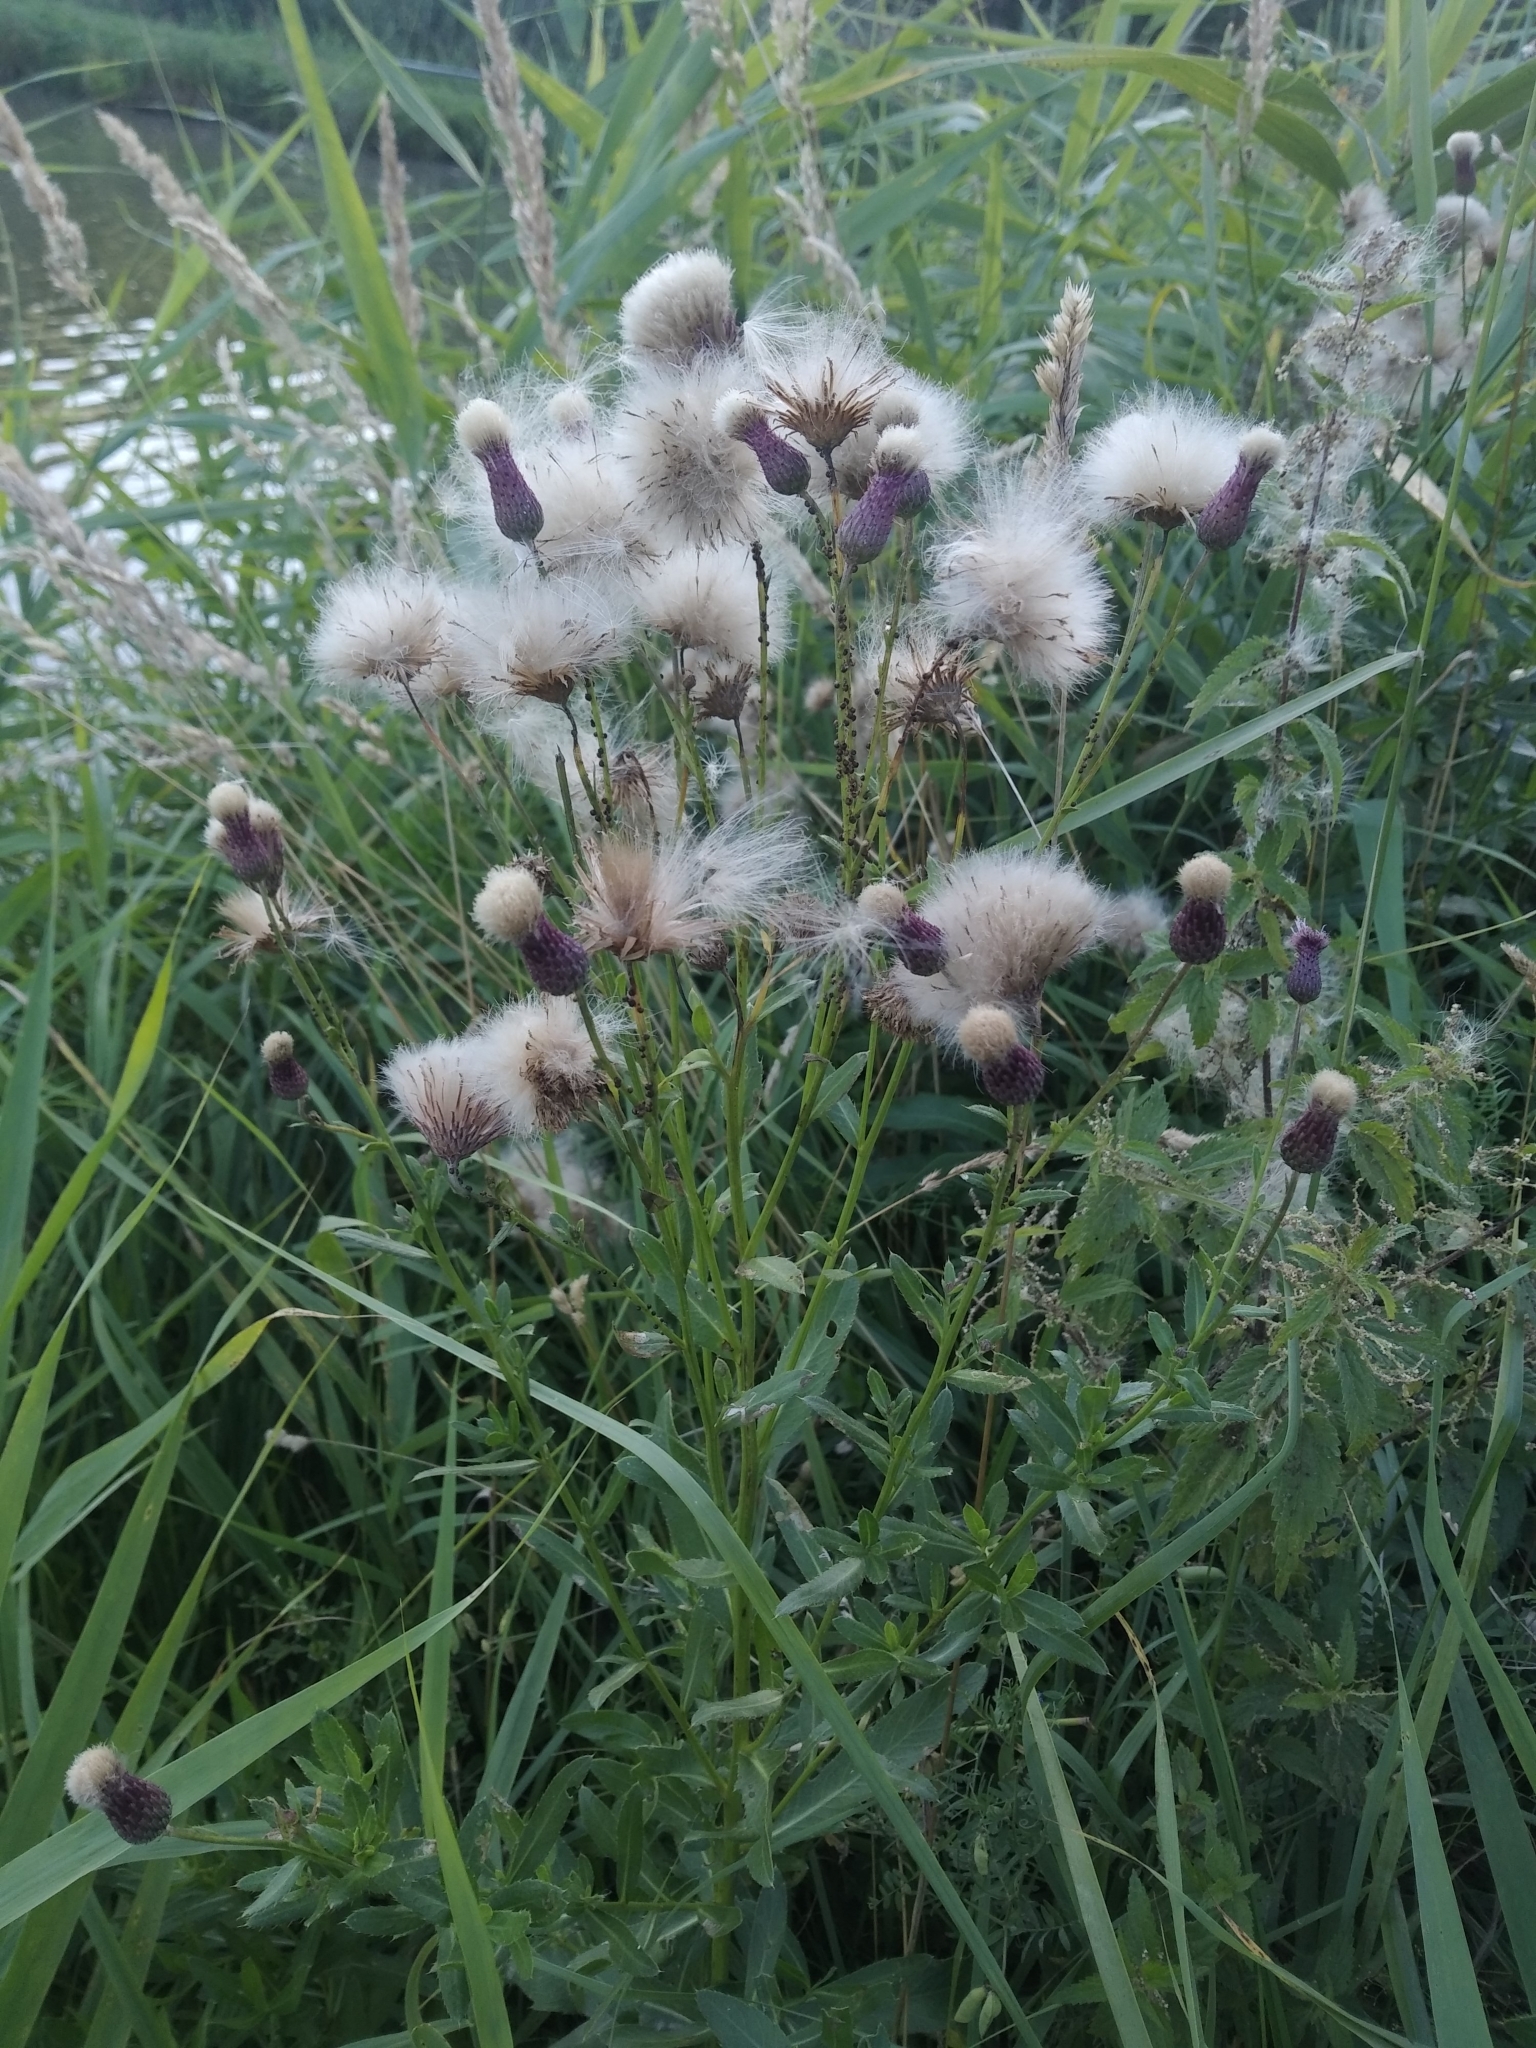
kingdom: Plantae
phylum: Tracheophyta
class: Magnoliopsida
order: Asterales
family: Asteraceae
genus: Cirsium
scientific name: Cirsium arvense
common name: Creeping thistle
